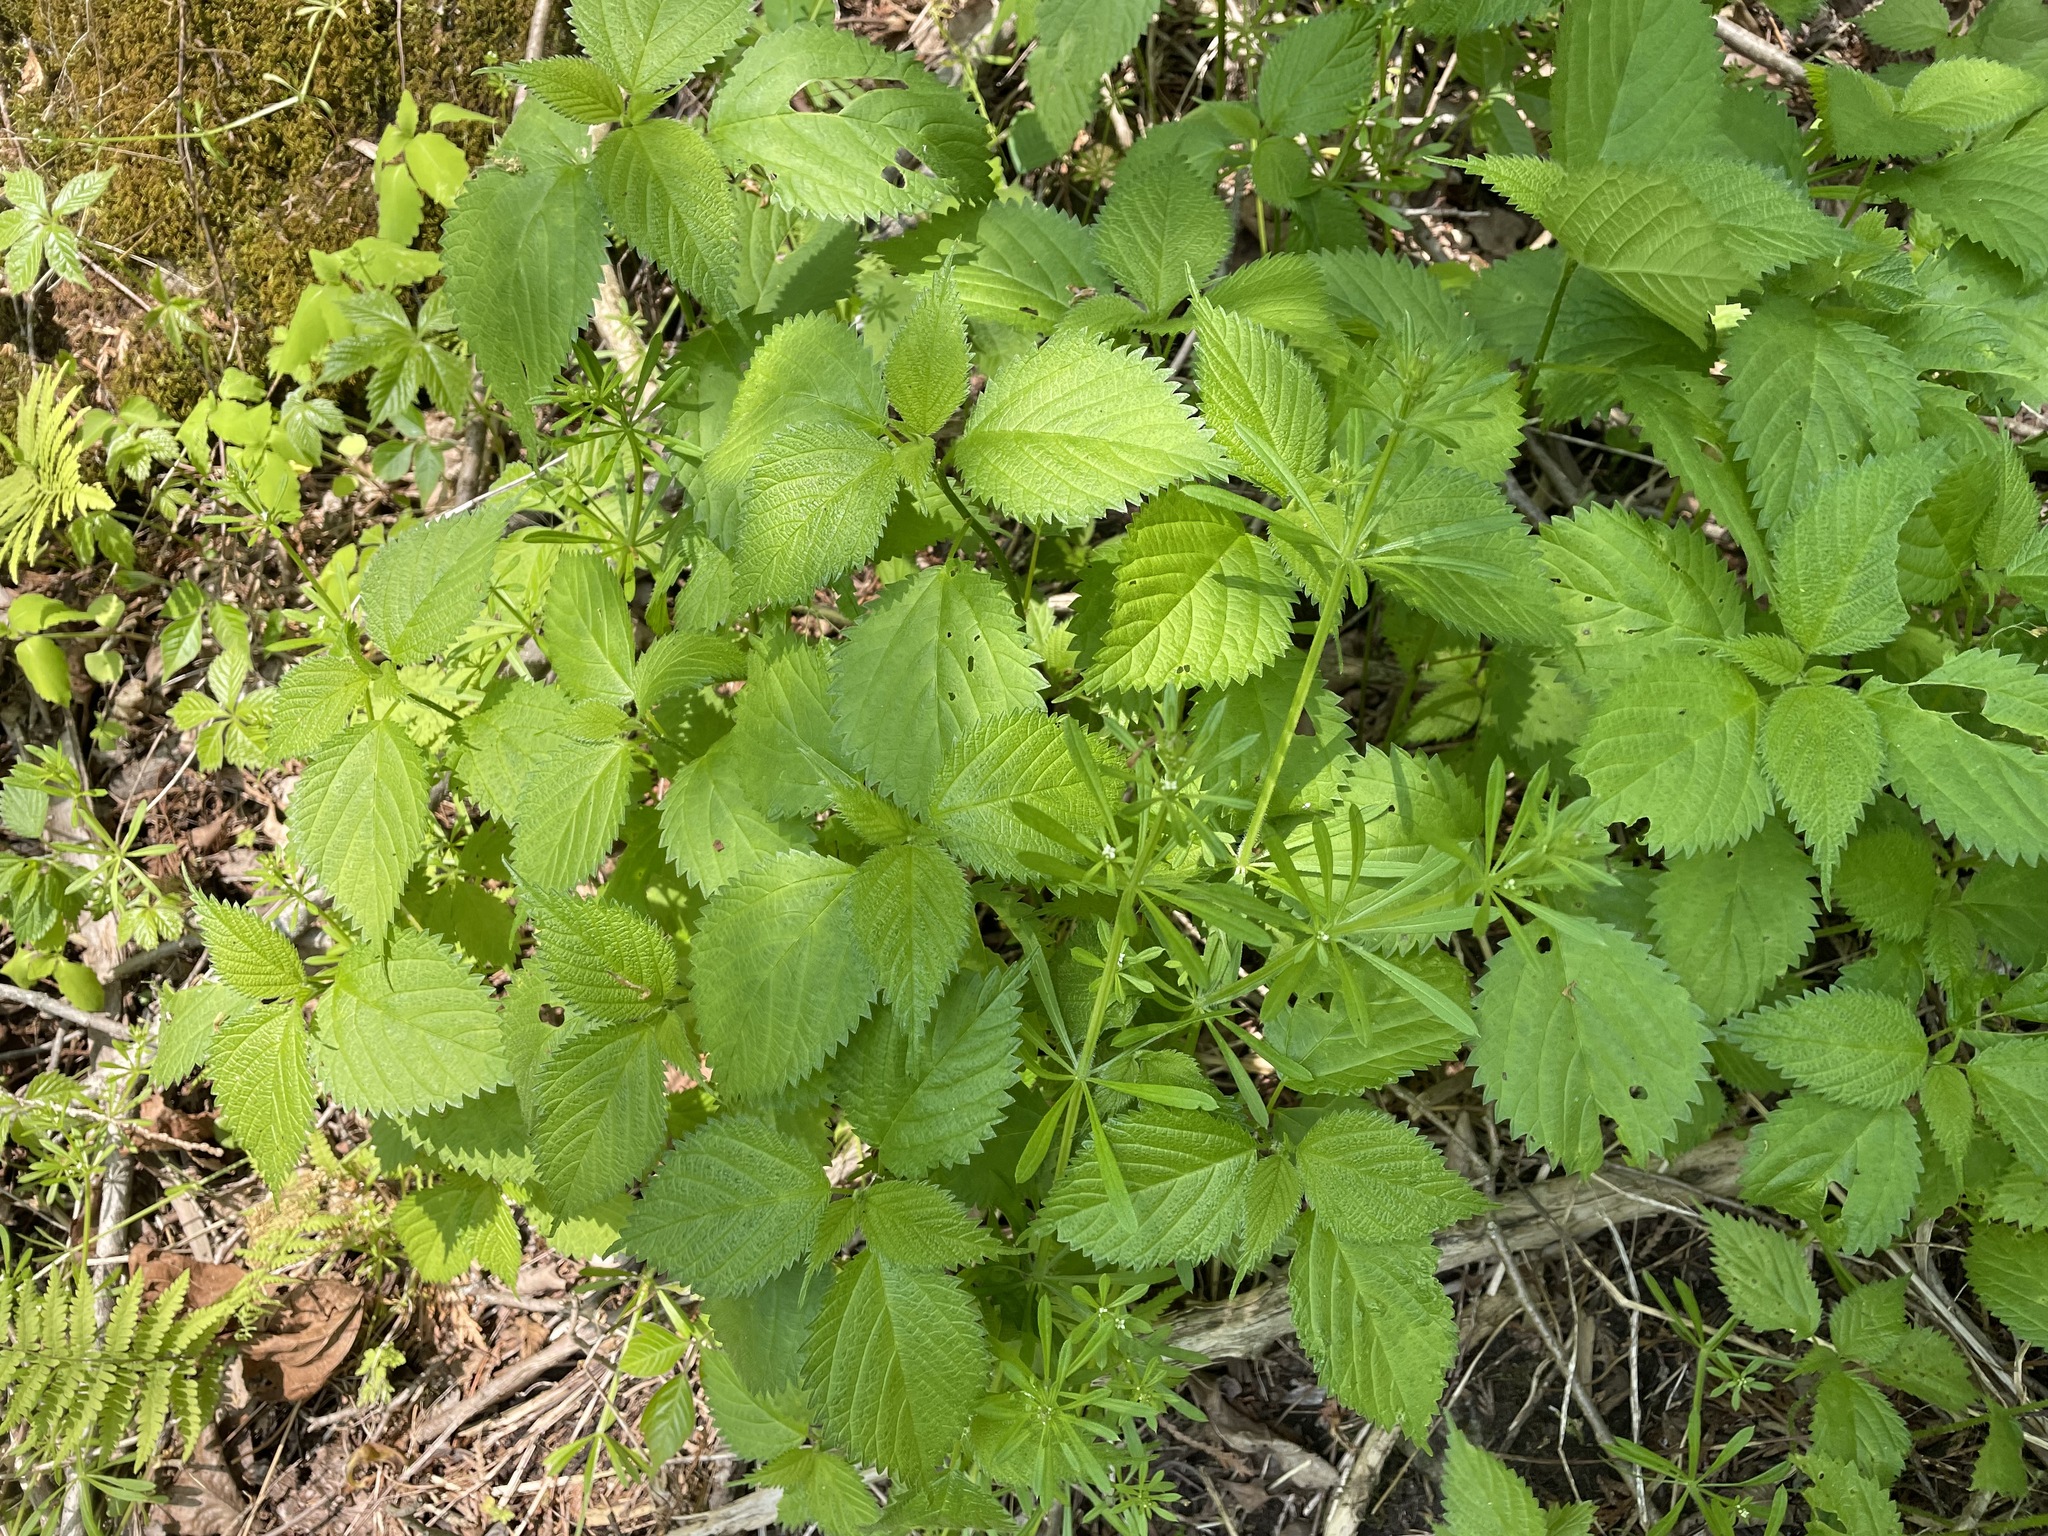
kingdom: Plantae
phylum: Tracheophyta
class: Magnoliopsida
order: Rosales
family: Urticaceae
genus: Laportea
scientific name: Laportea canadensis
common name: Canada nettle
